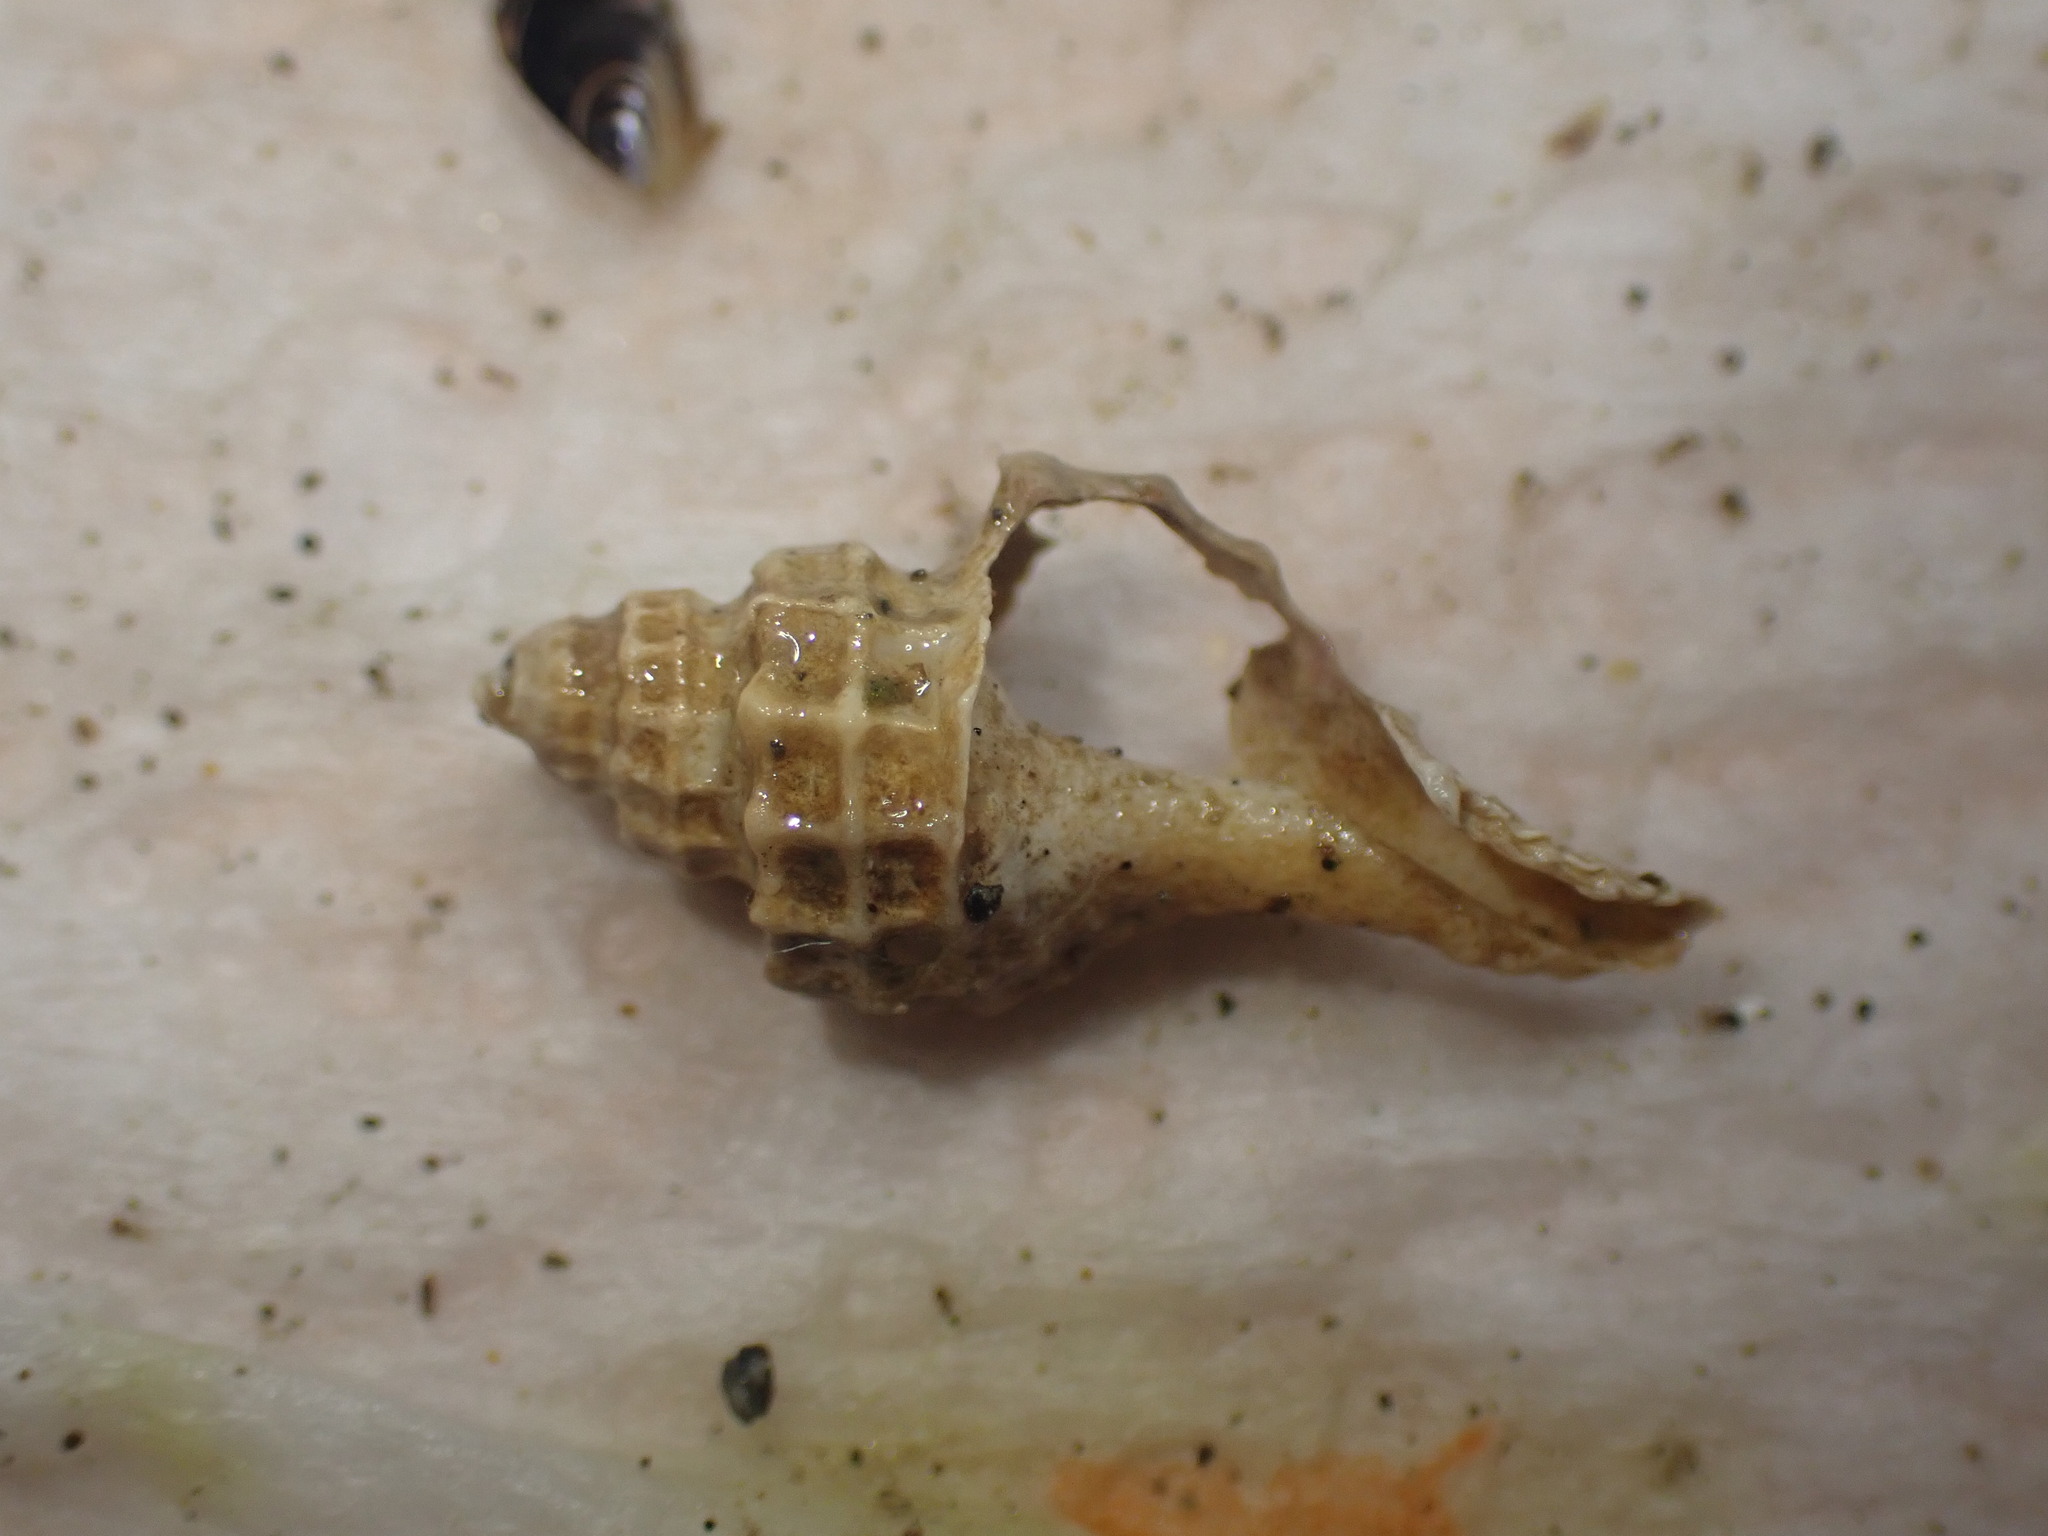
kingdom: Animalia
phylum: Mollusca
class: Gastropoda
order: Neogastropoda
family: Muricidae
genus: Zeatrophon
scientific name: Zeatrophon ambiguus
